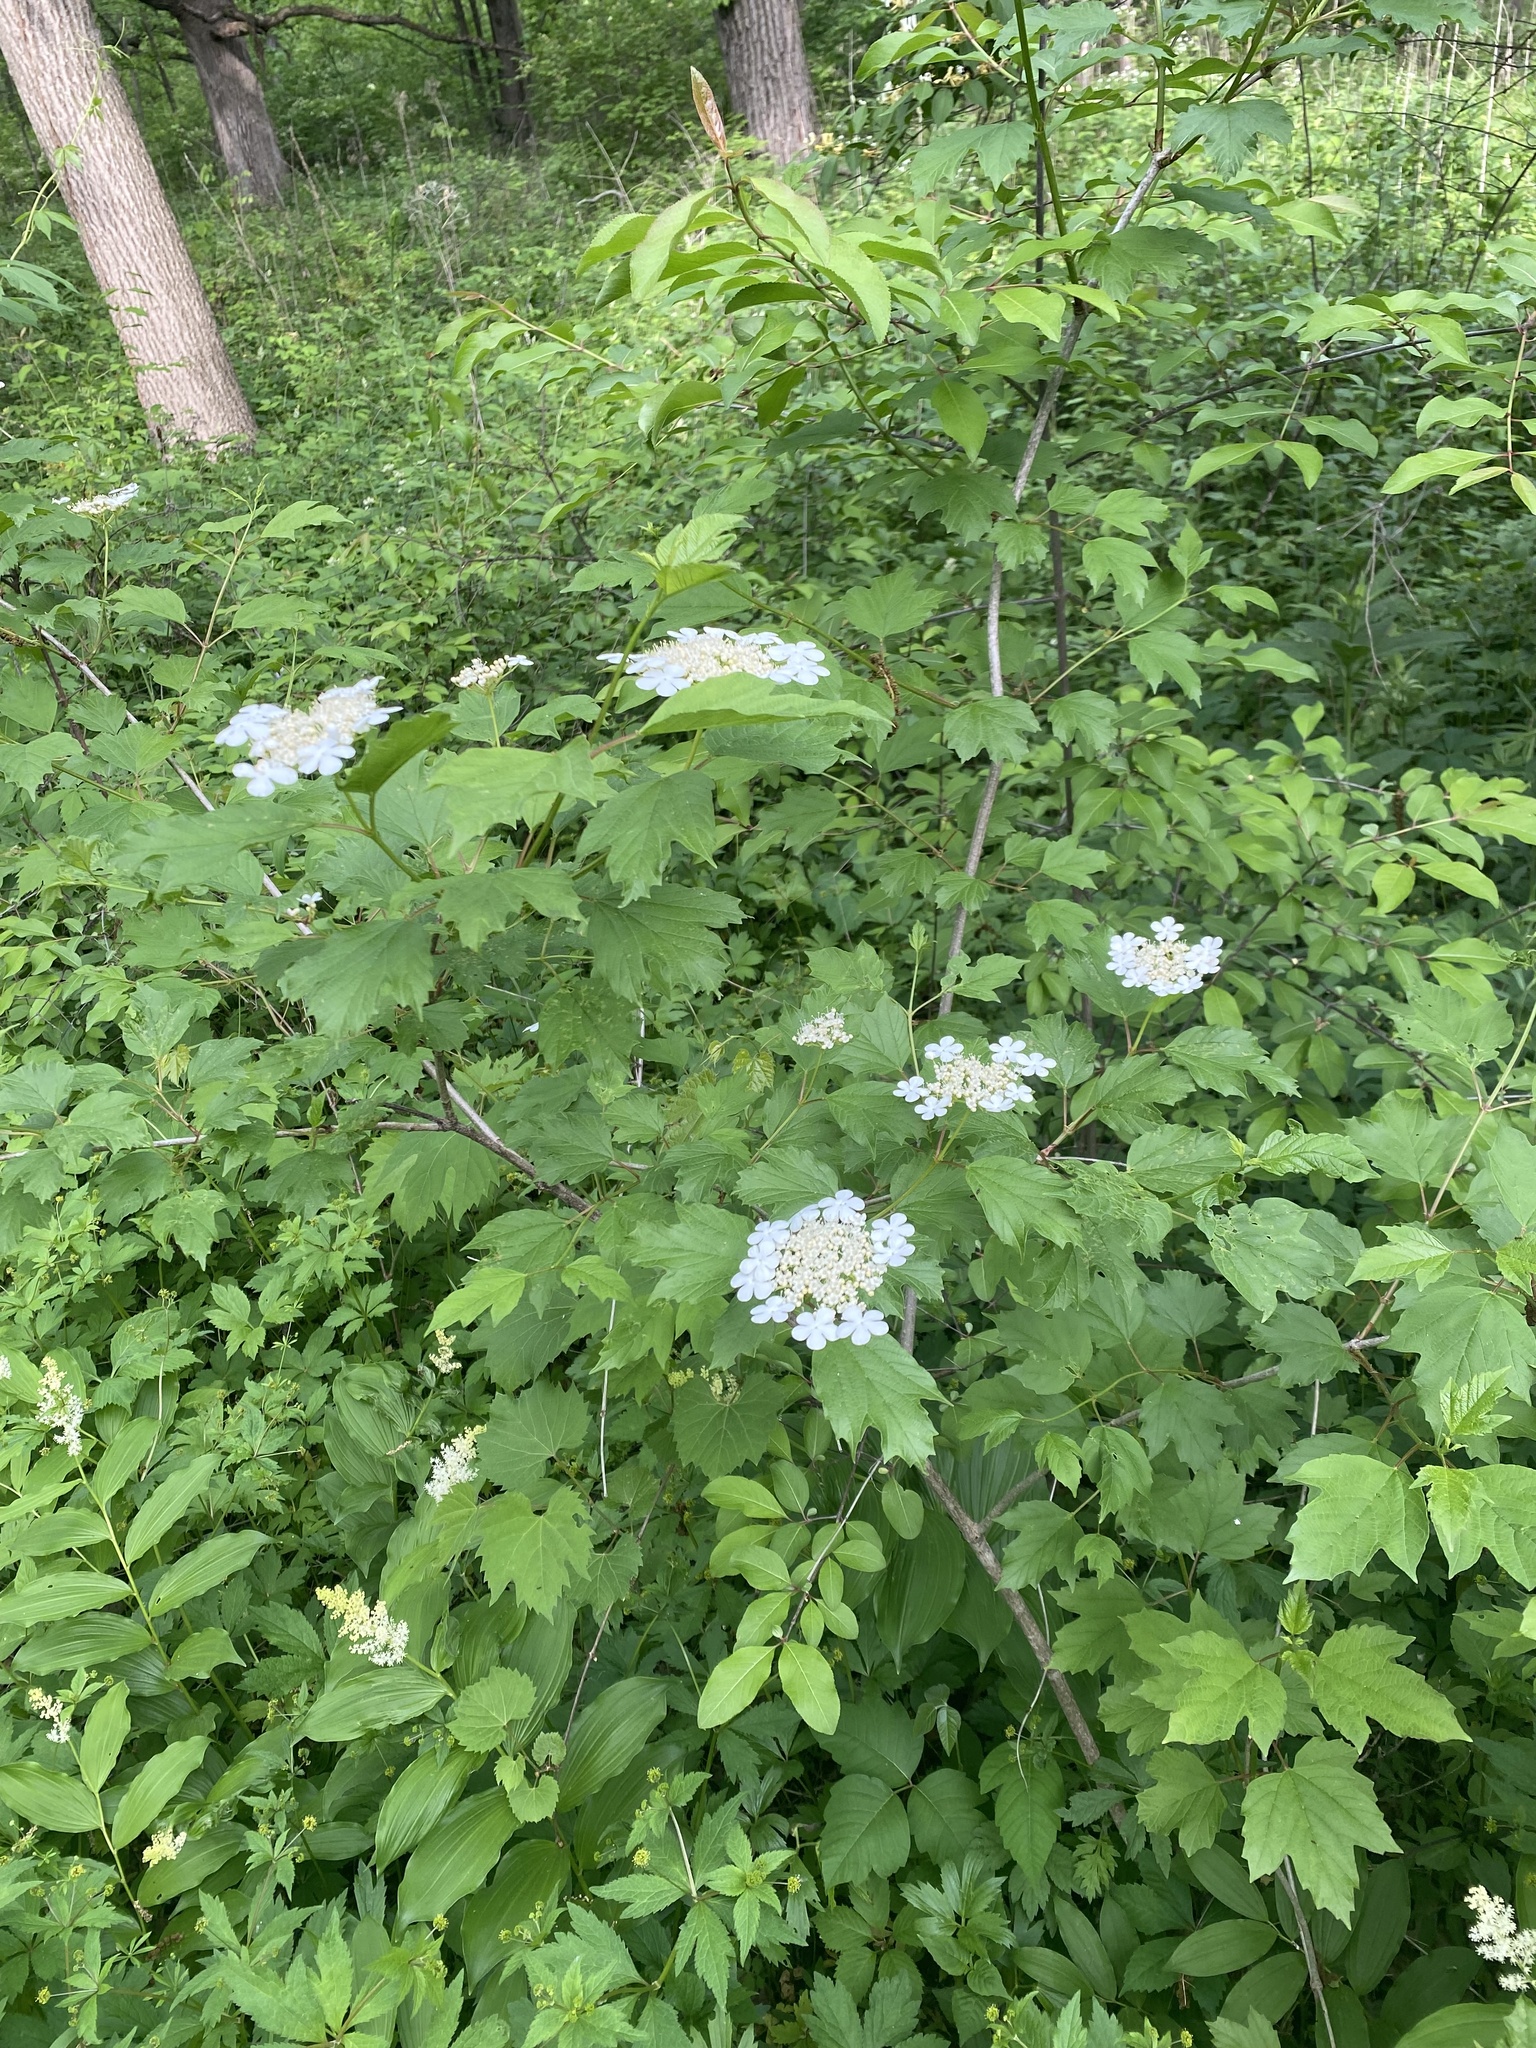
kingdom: Plantae
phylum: Tracheophyta
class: Magnoliopsida
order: Dipsacales
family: Viburnaceae
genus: Viburnum
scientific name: Viburnum opulus
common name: Guelder-rose
